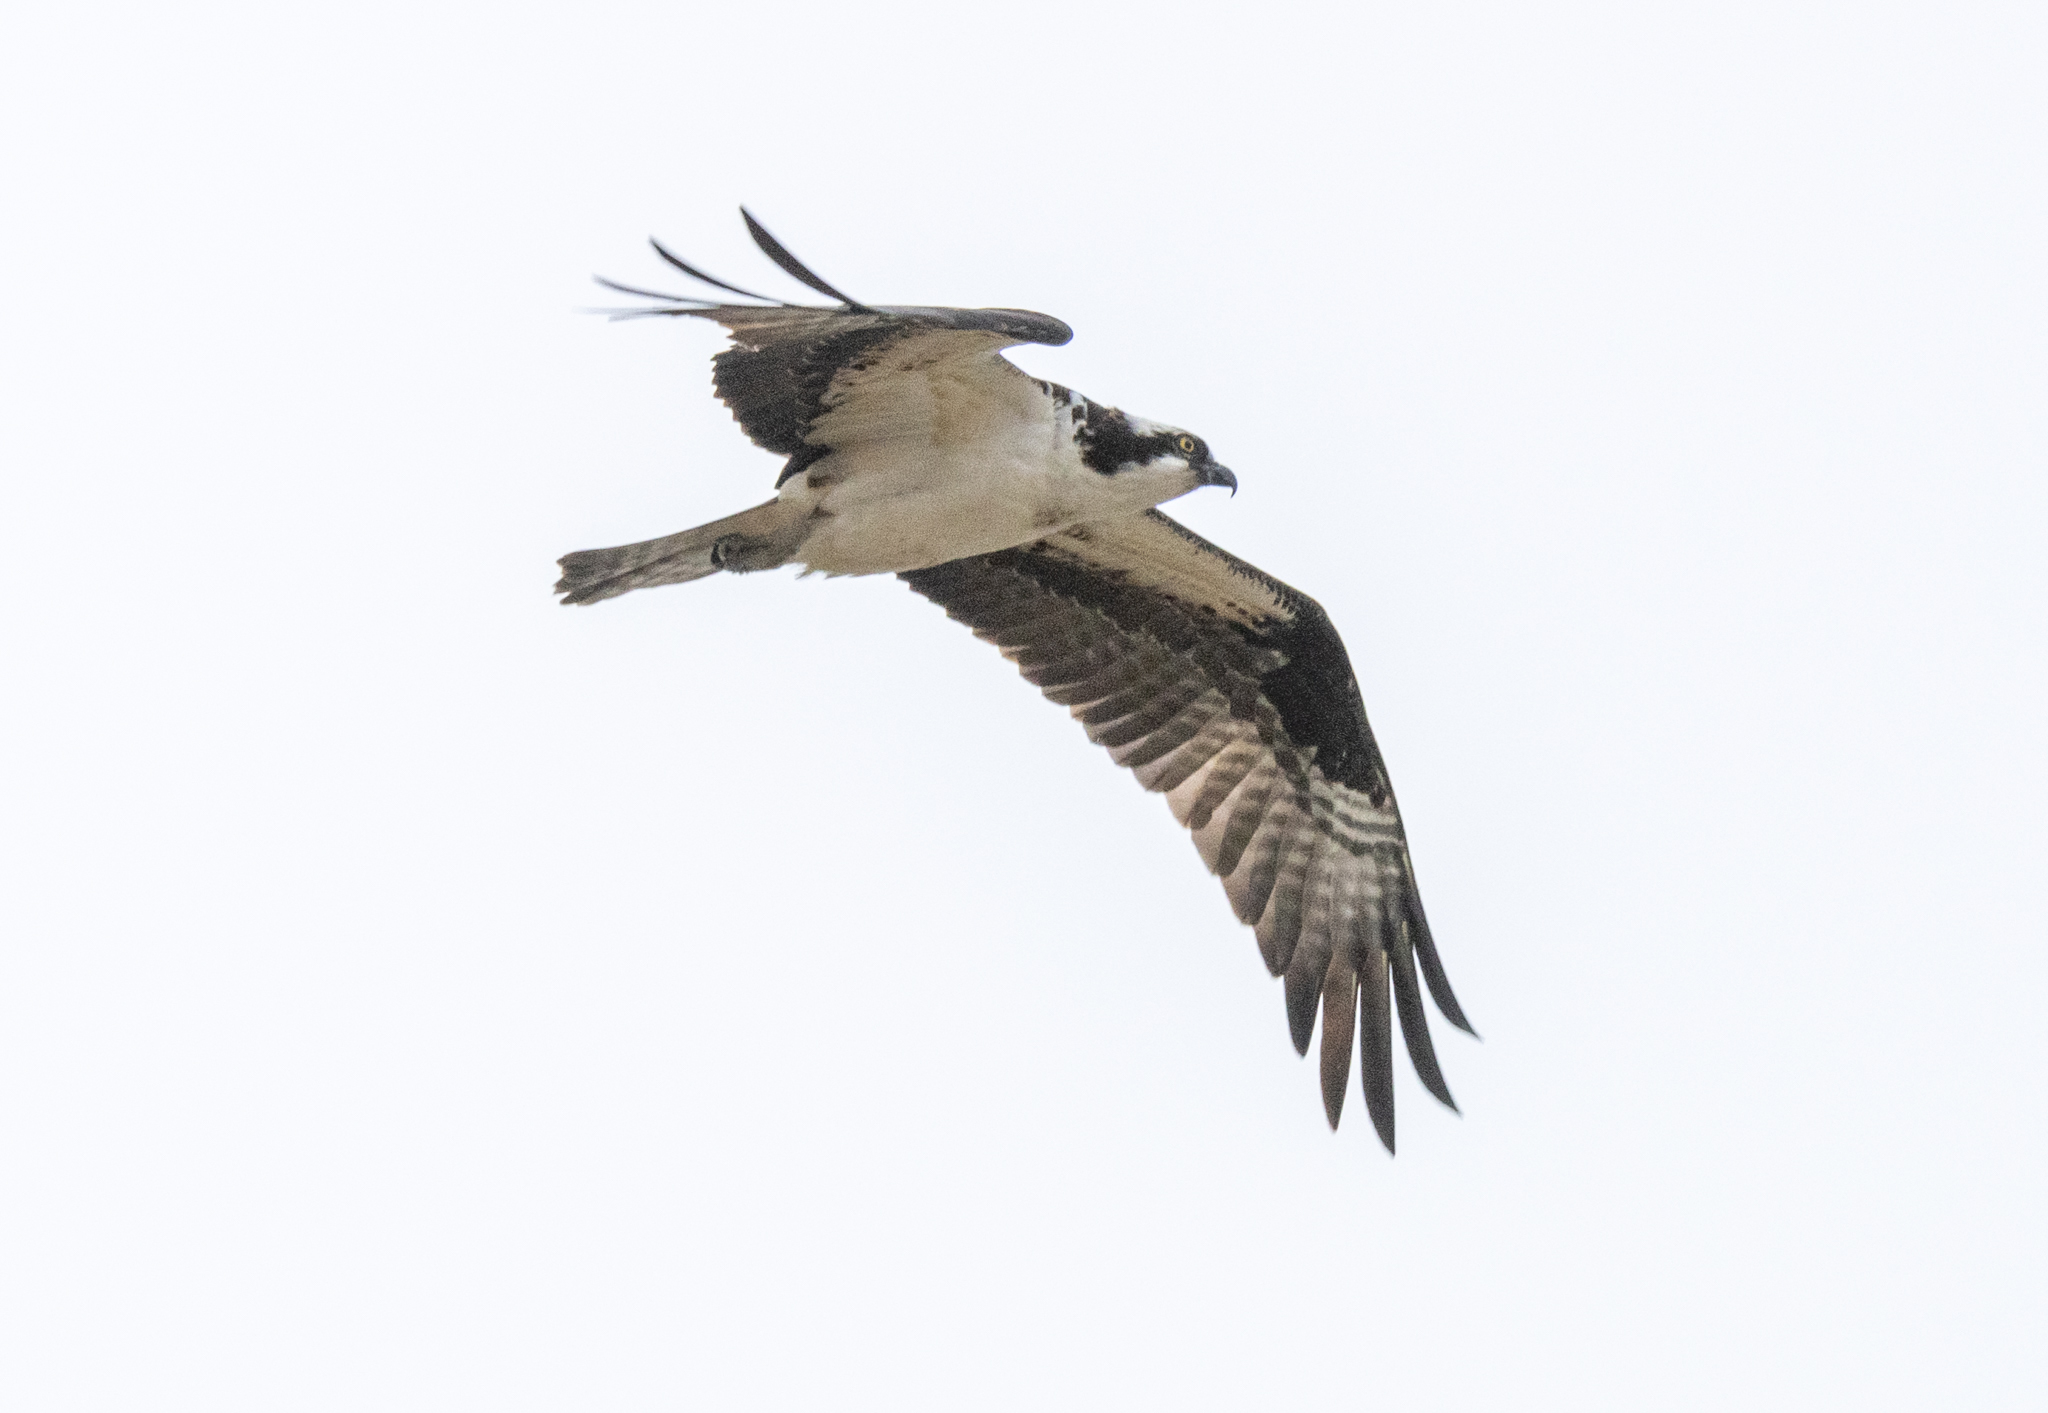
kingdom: Animalia
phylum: Chordata
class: Aves
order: Accipitriformes
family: Pandionidae
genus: Pandion
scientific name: Pandion haliaetus
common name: Osprey
